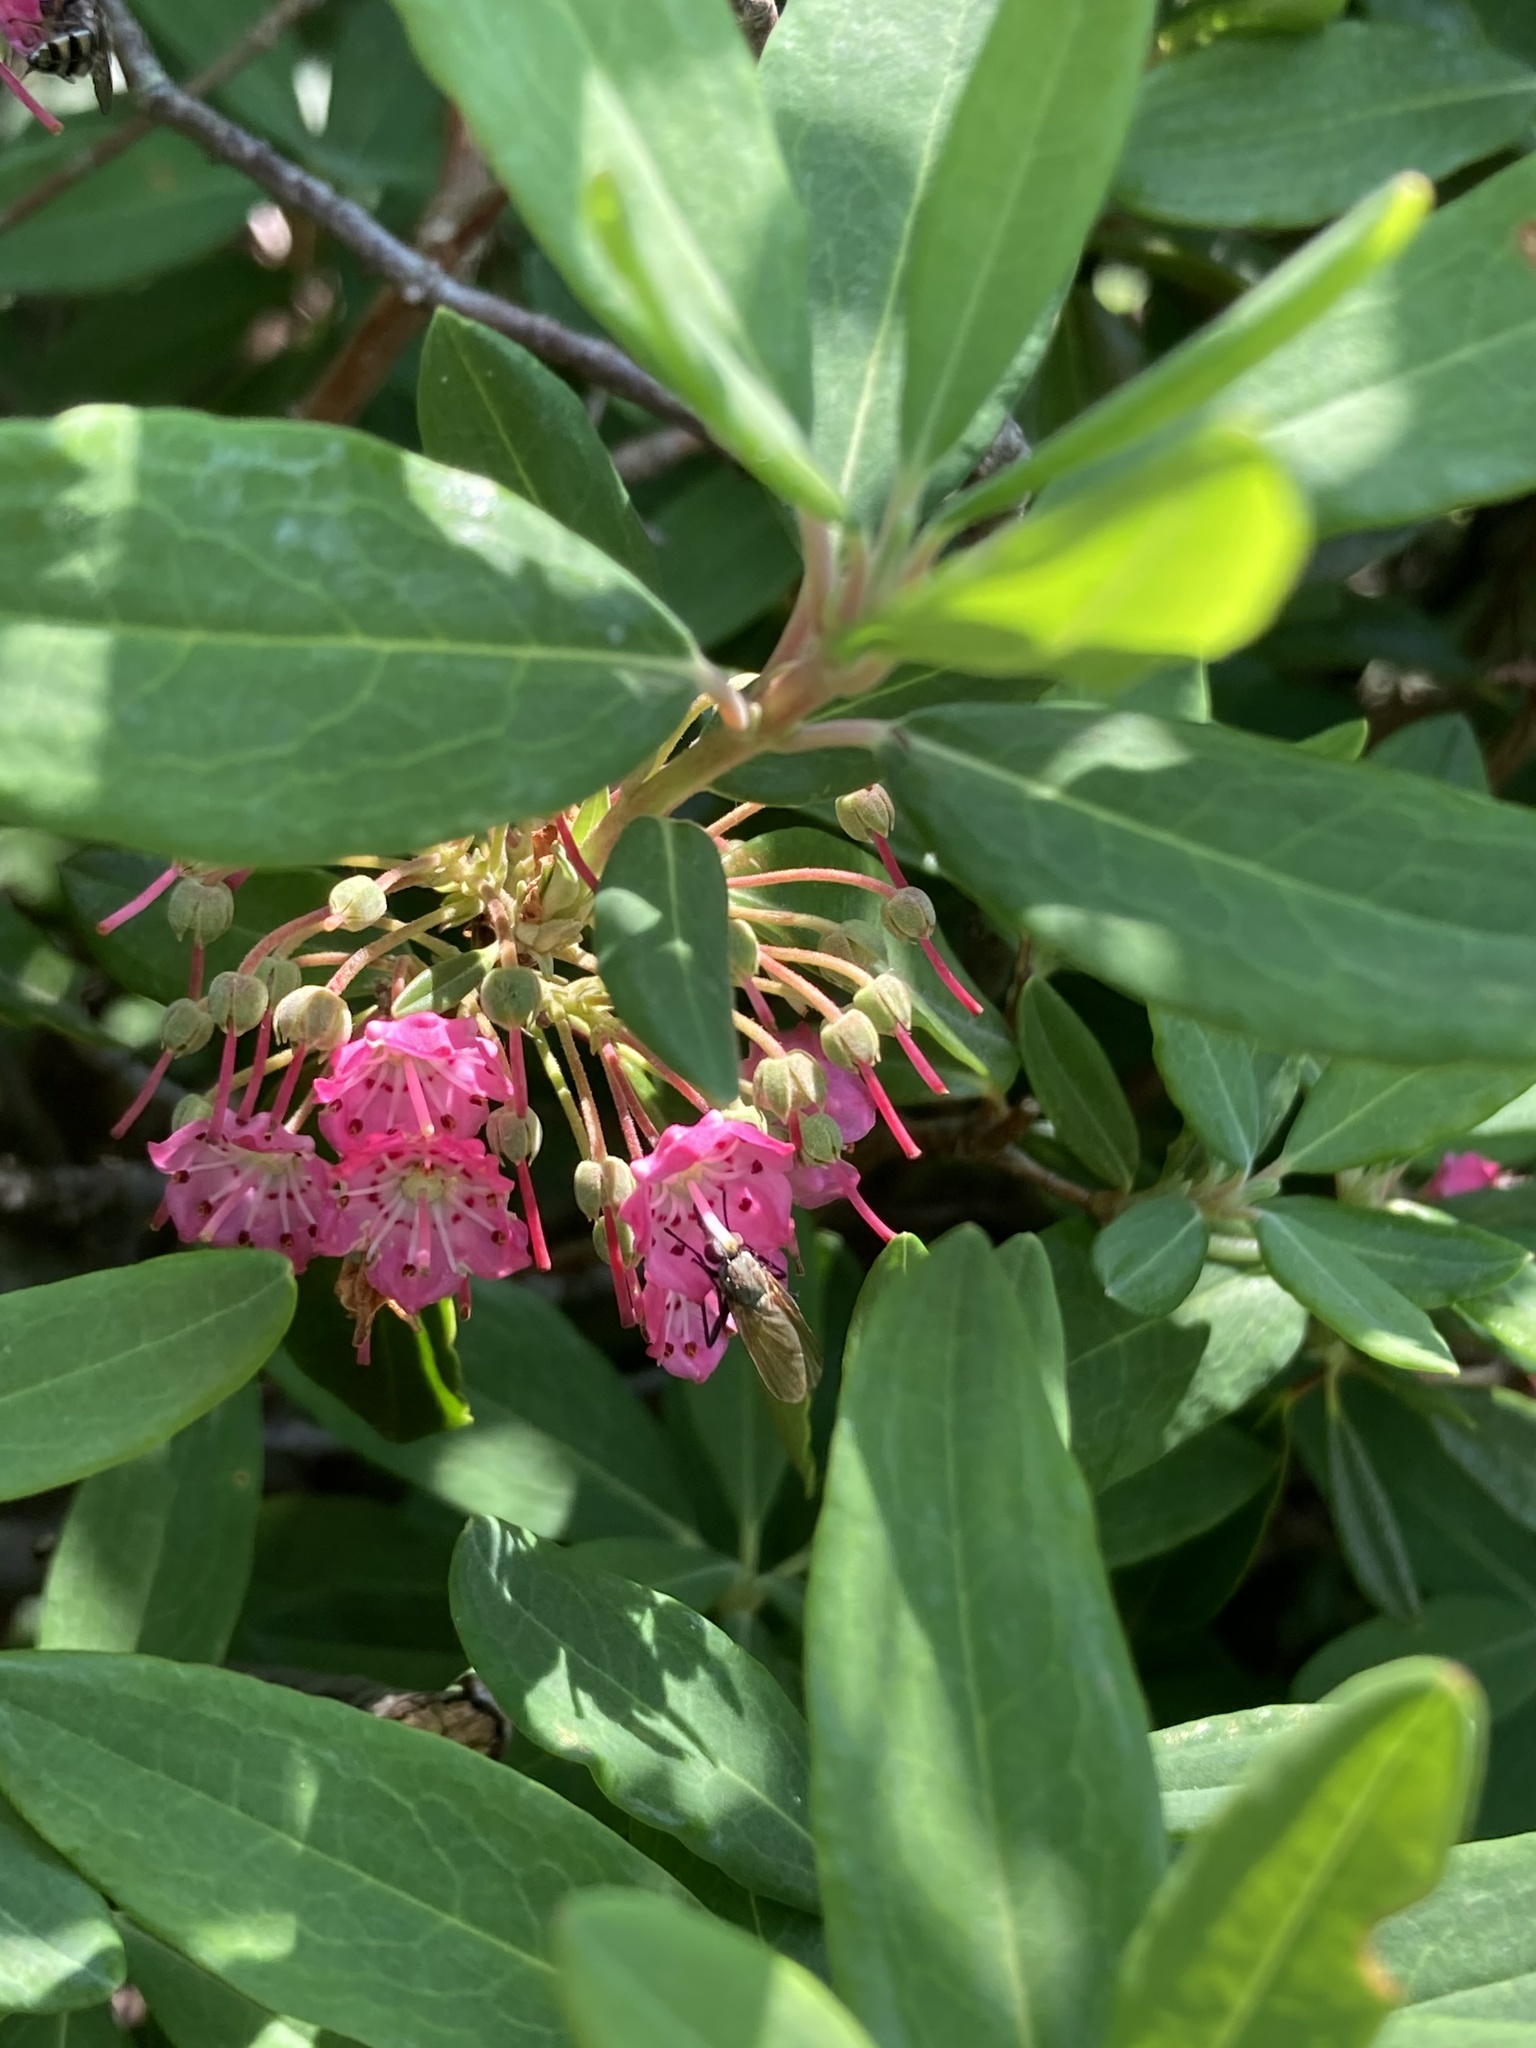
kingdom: Plantae
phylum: Tracheophyta
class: Magnoliopsida
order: Ericales
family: Ericaceae
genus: Kalmia
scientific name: Kalmia angustifolia
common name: Sheep-laurel
